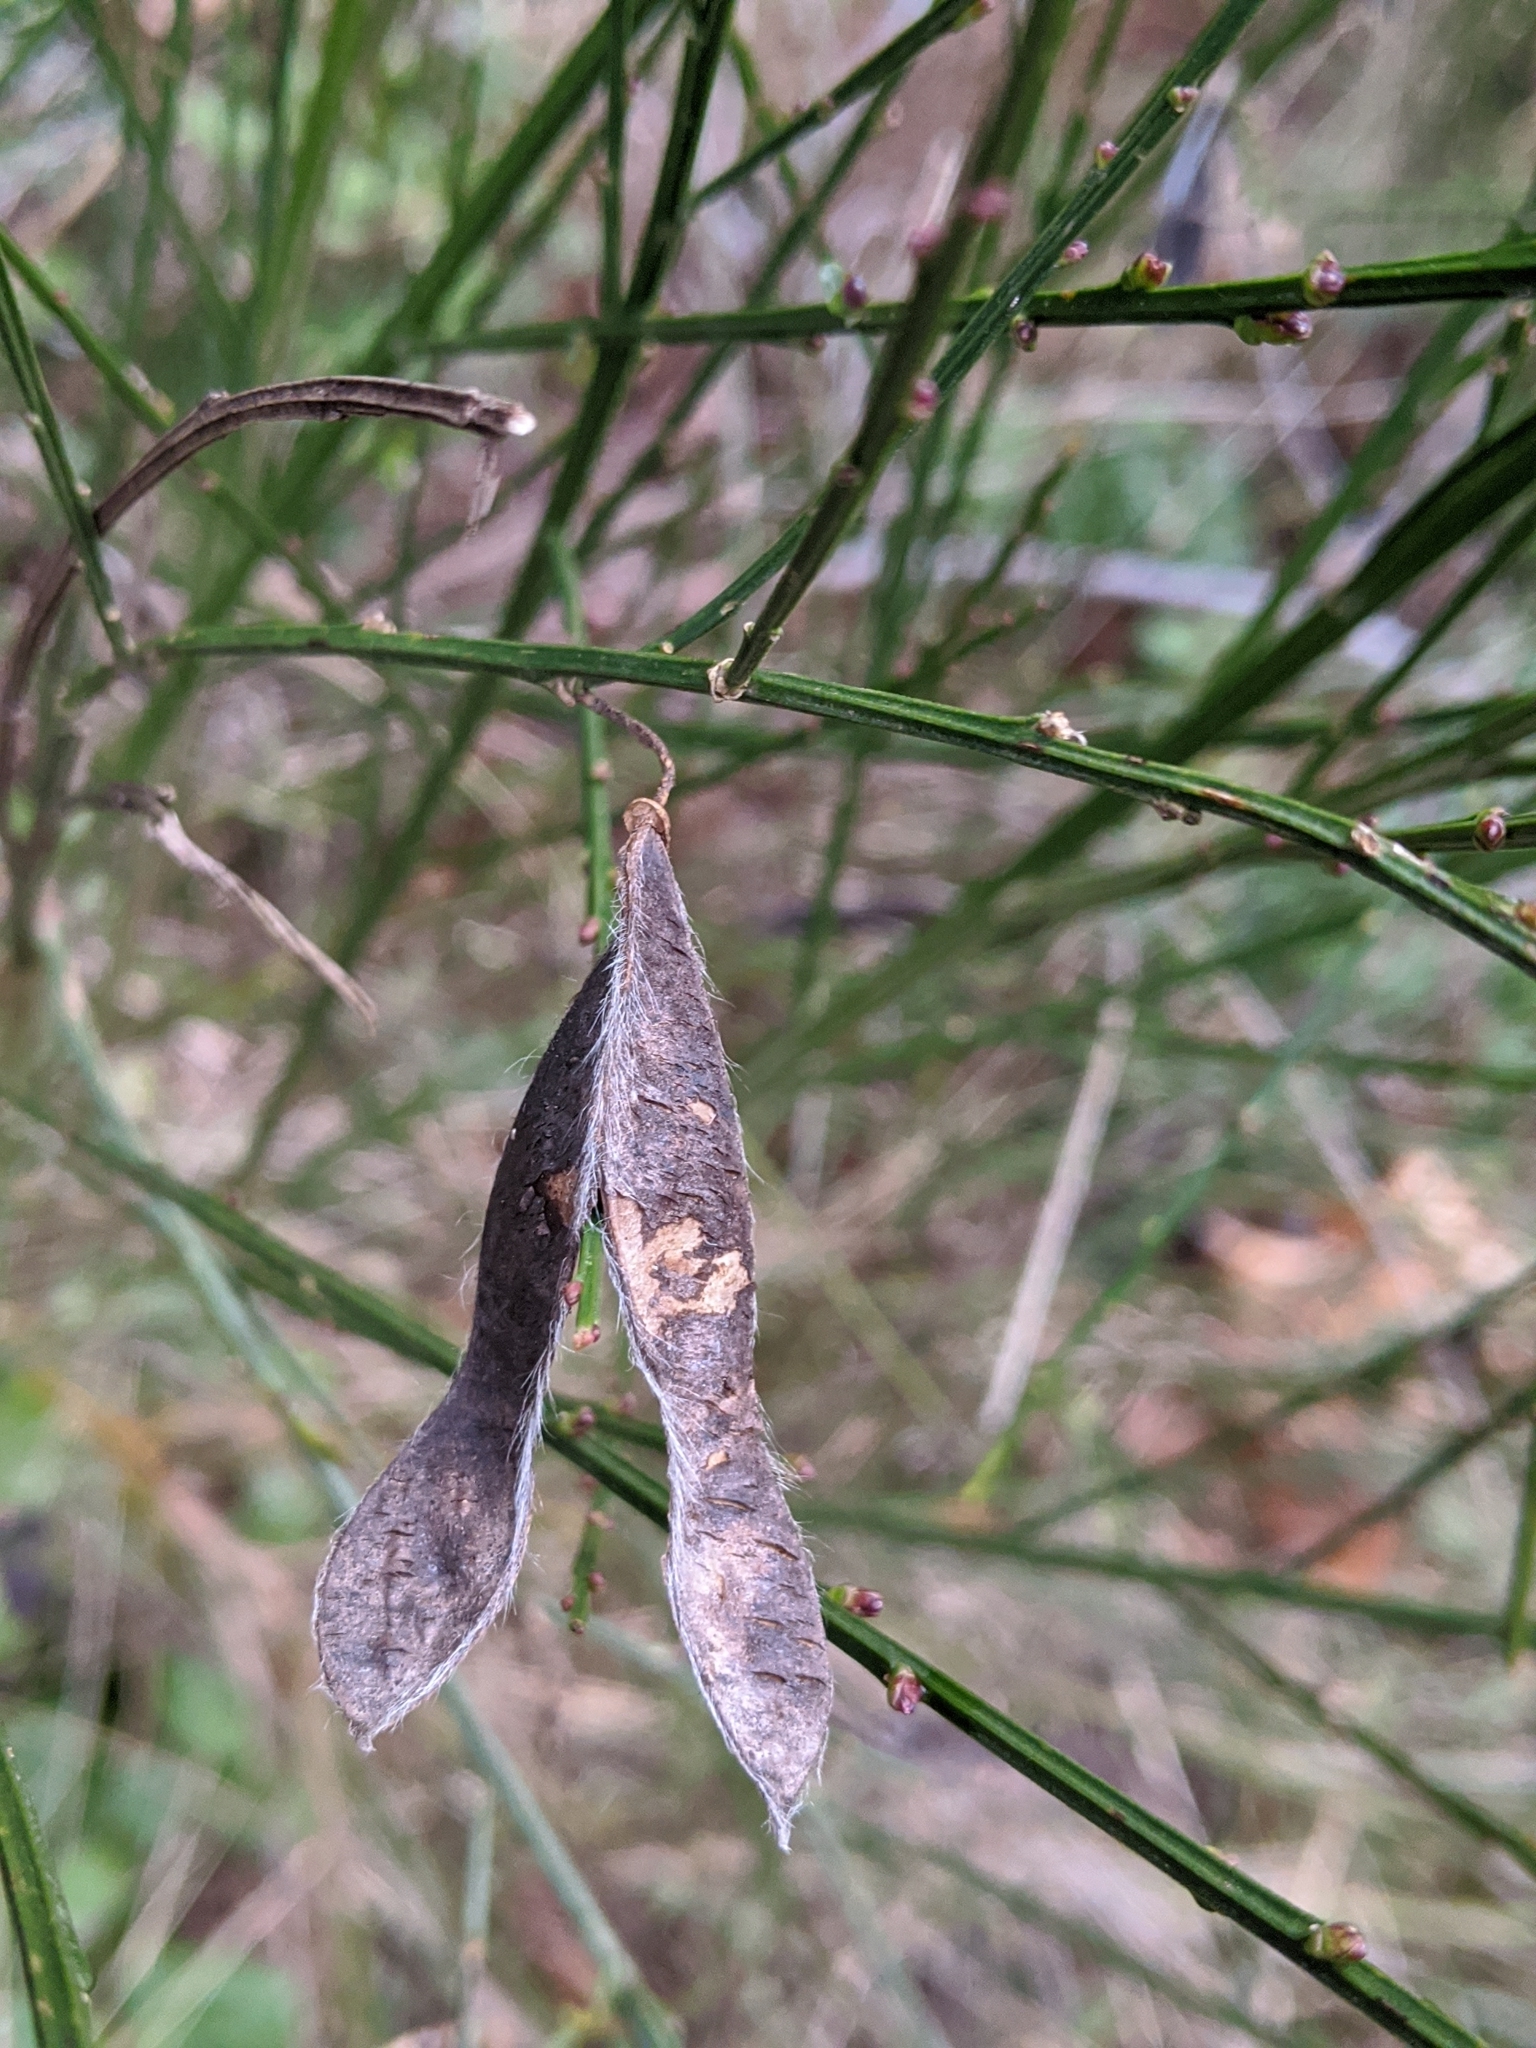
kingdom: Plantae
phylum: Tracheophyta
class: Magnoliopsida
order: Fabales
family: Fabaceae
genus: Cytisus
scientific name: Cytisus scoparius
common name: Scotch broom
